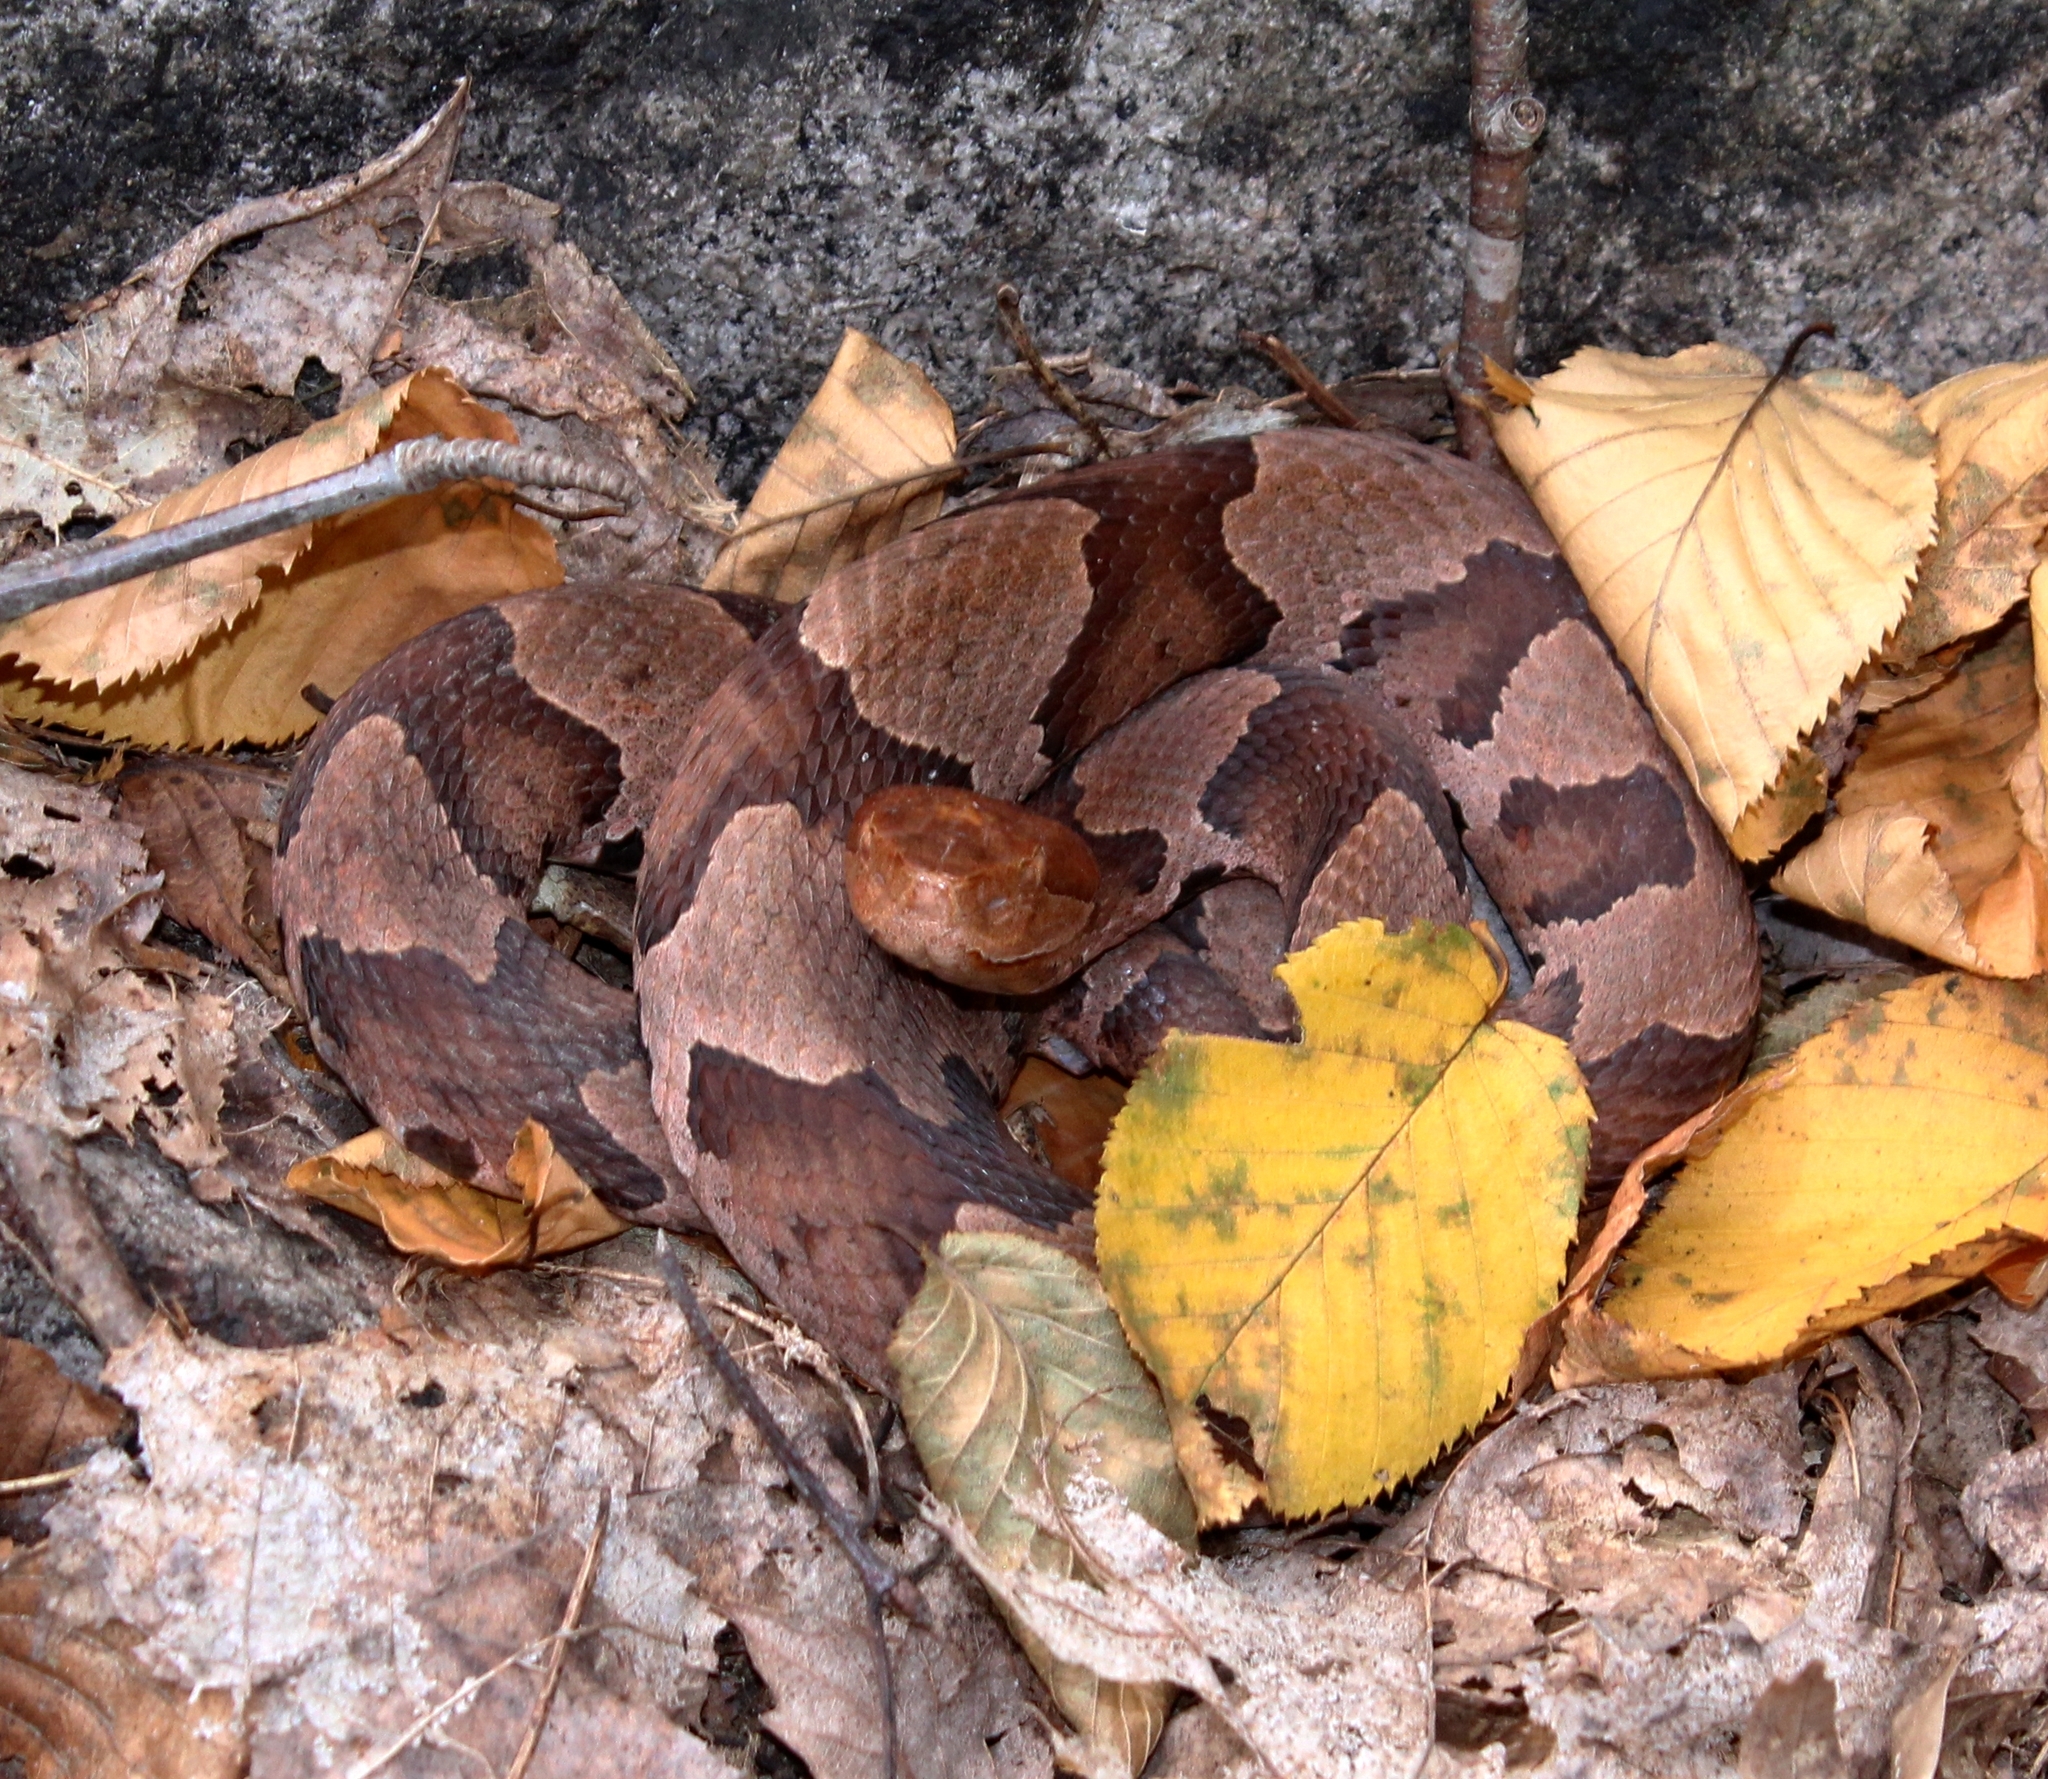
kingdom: Animalia
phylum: Chordata
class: Squamata
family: Viperidae
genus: Agkistrodon
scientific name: Agkistrodon contortrix
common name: Northern copperhead
